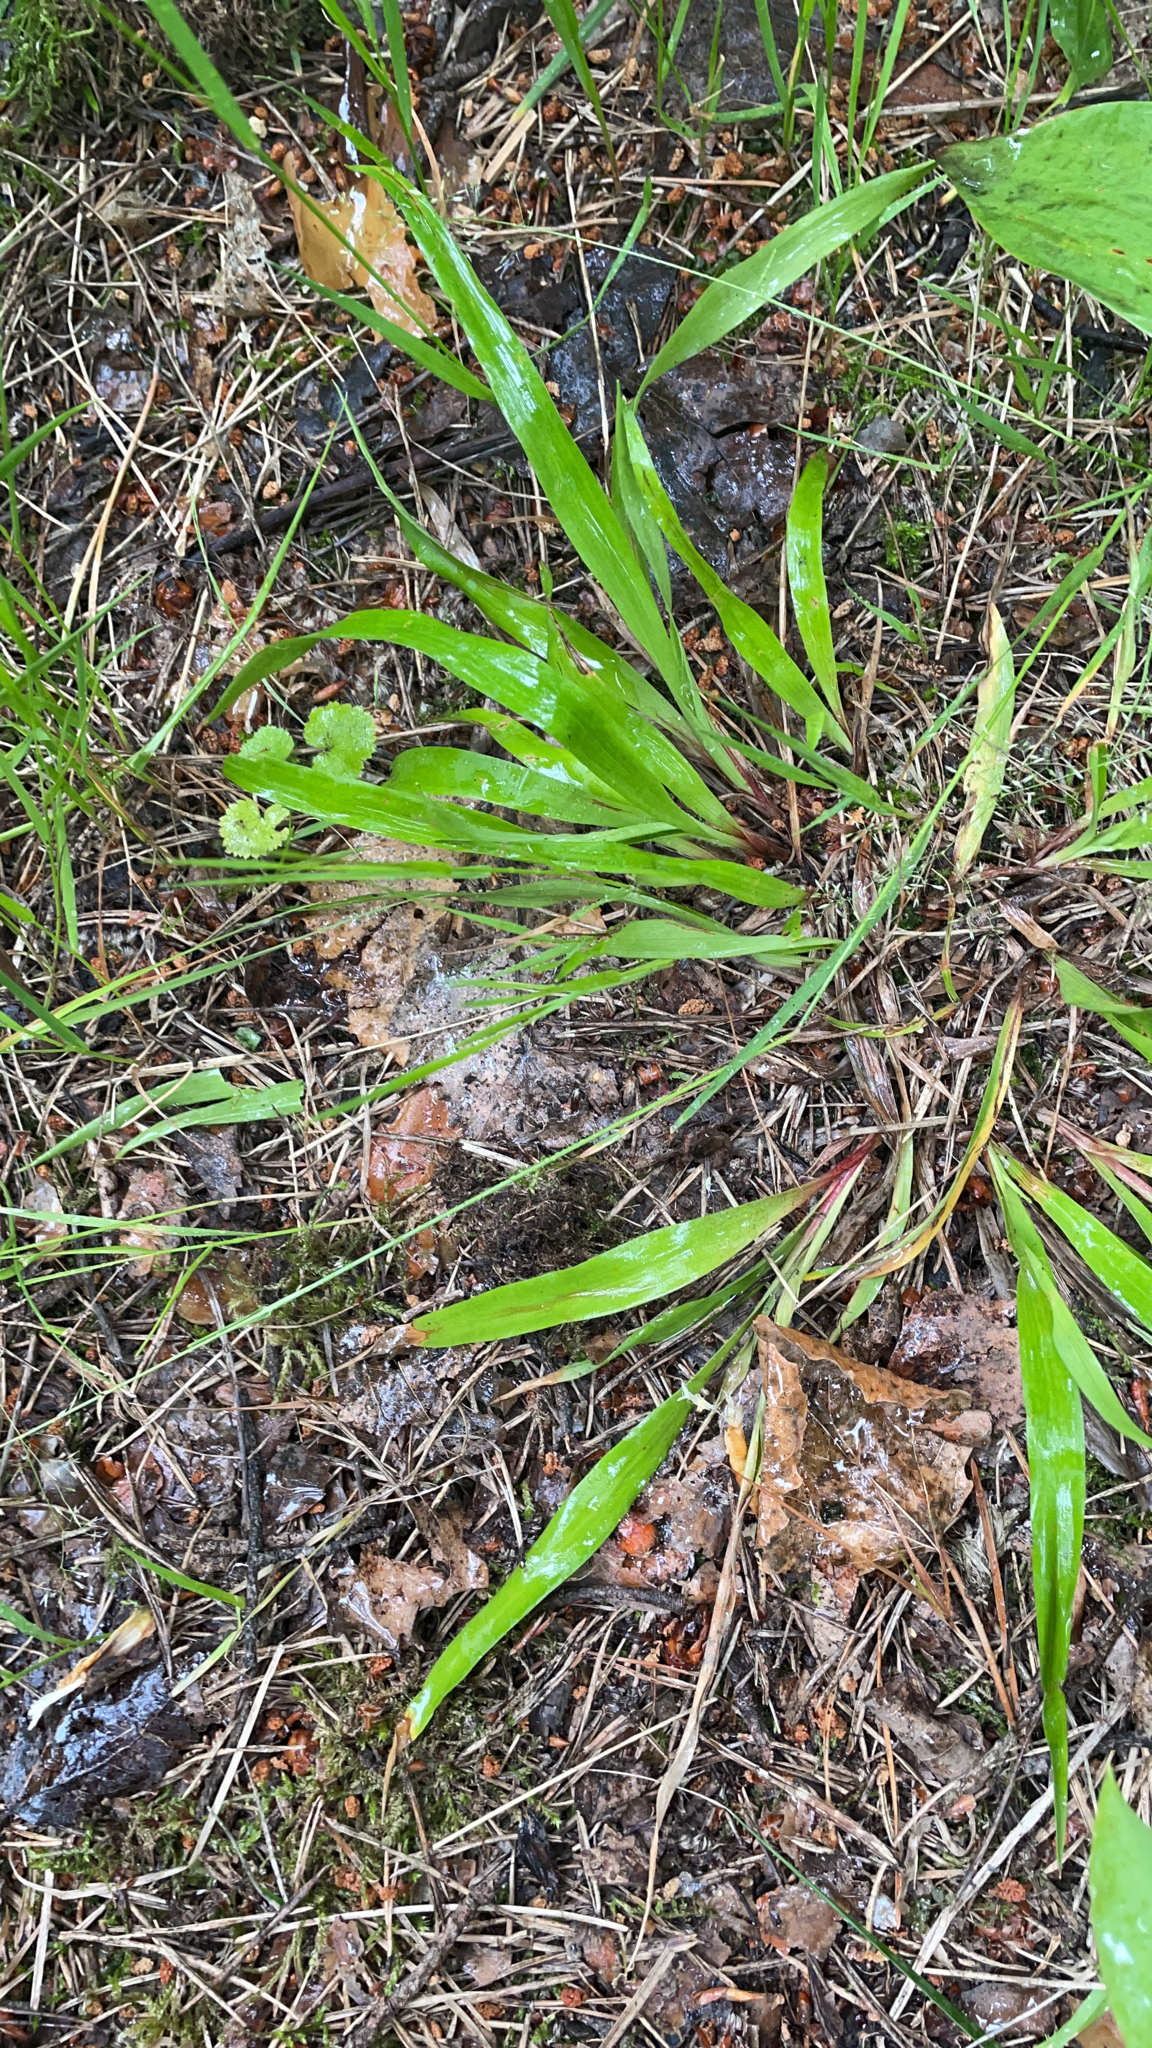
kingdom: Plantae
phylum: Tracheophyta
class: Liliopsida
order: Poales
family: Juncaceae
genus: Luzula
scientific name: Luzula pilosa
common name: Hairy wood-rush
